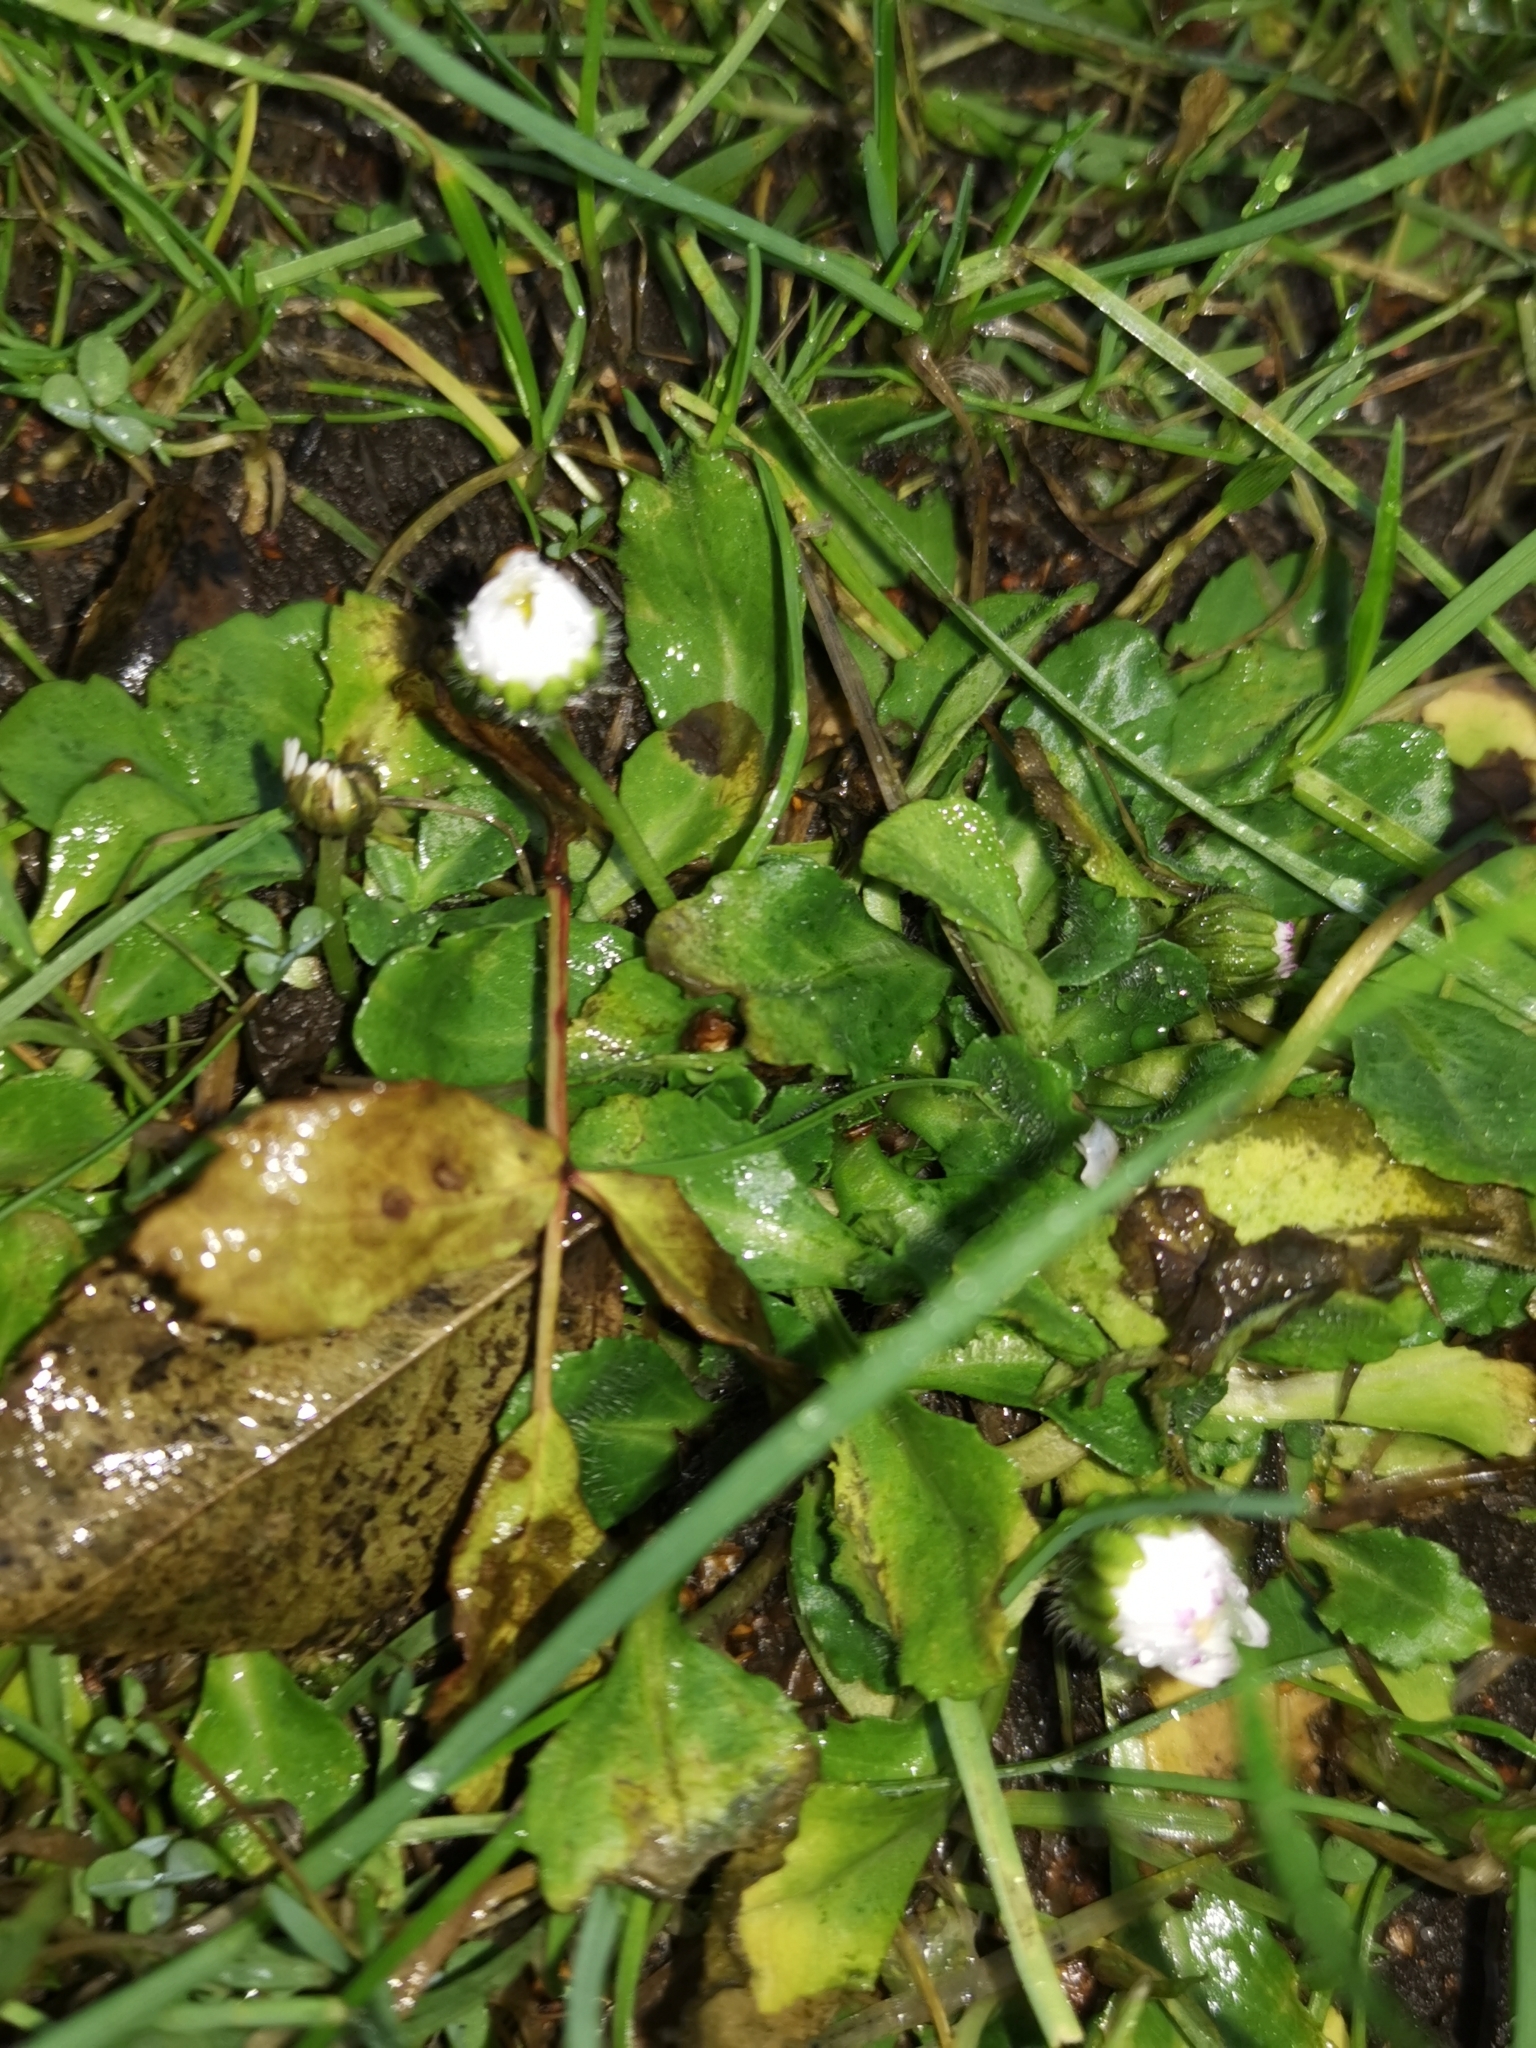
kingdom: Plantae
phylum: Tracheophyta
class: Magnoliopsida
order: Asterales
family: Asteraceae
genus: Bellis
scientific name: Bellis perennis
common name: Lawndaisy
